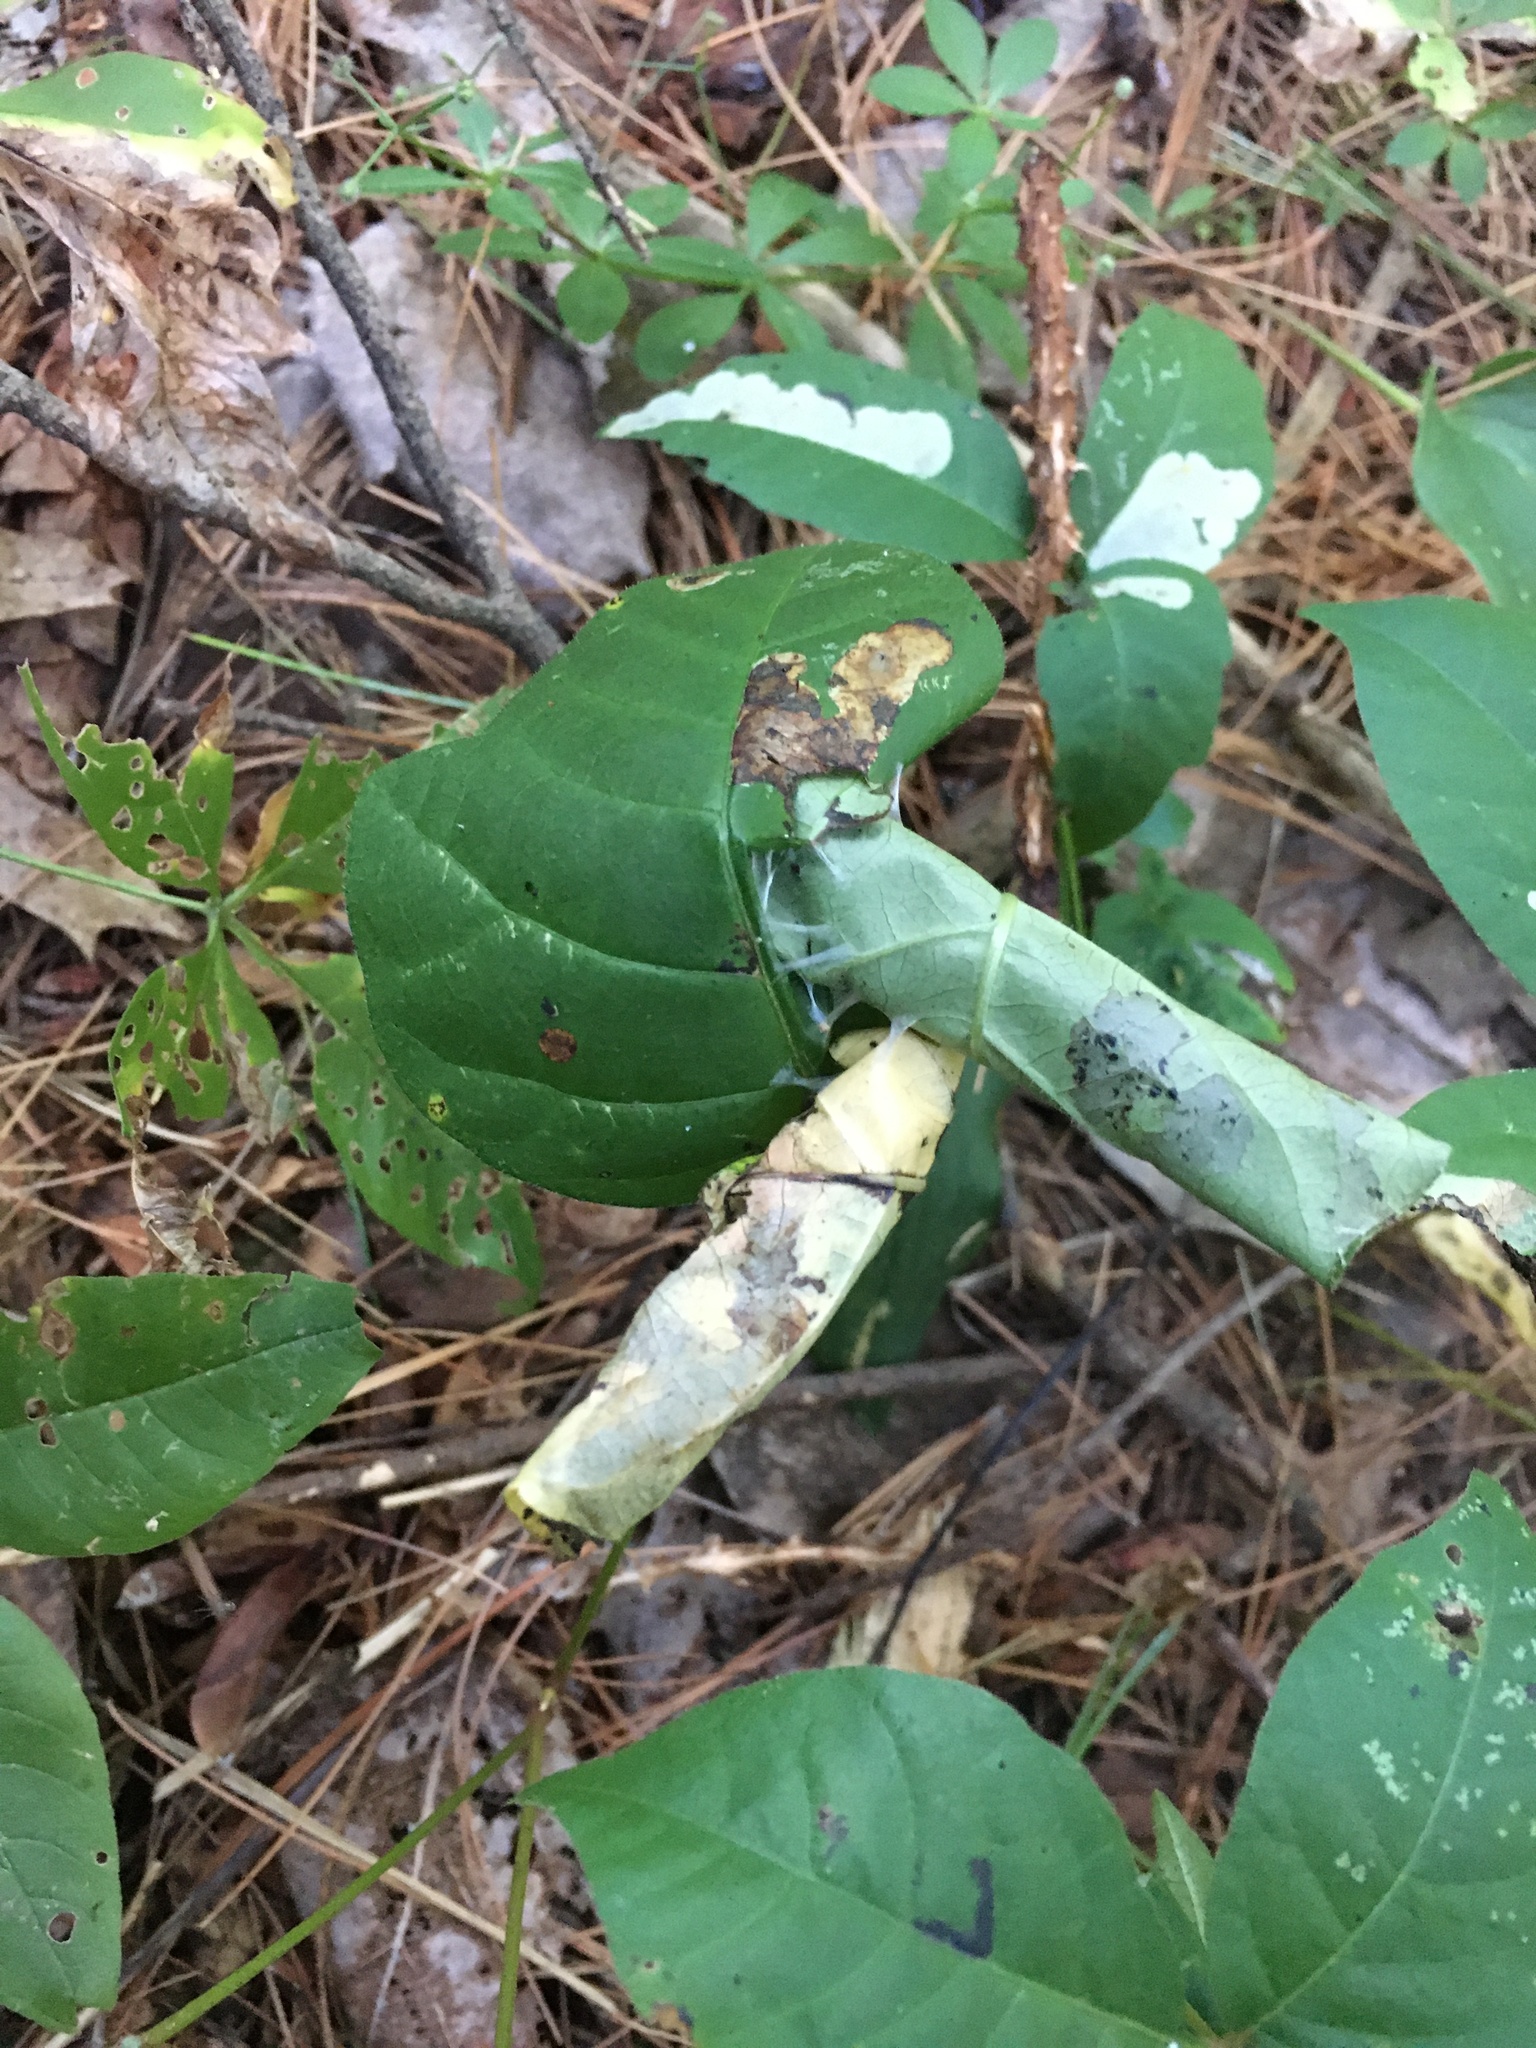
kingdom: Animalia
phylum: Arthropoda
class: Insecta
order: Lepidoptera
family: Gracillariidae
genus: Cameraria
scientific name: Cameraria guttifinitella
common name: Poison ivy leaf-miner moth
